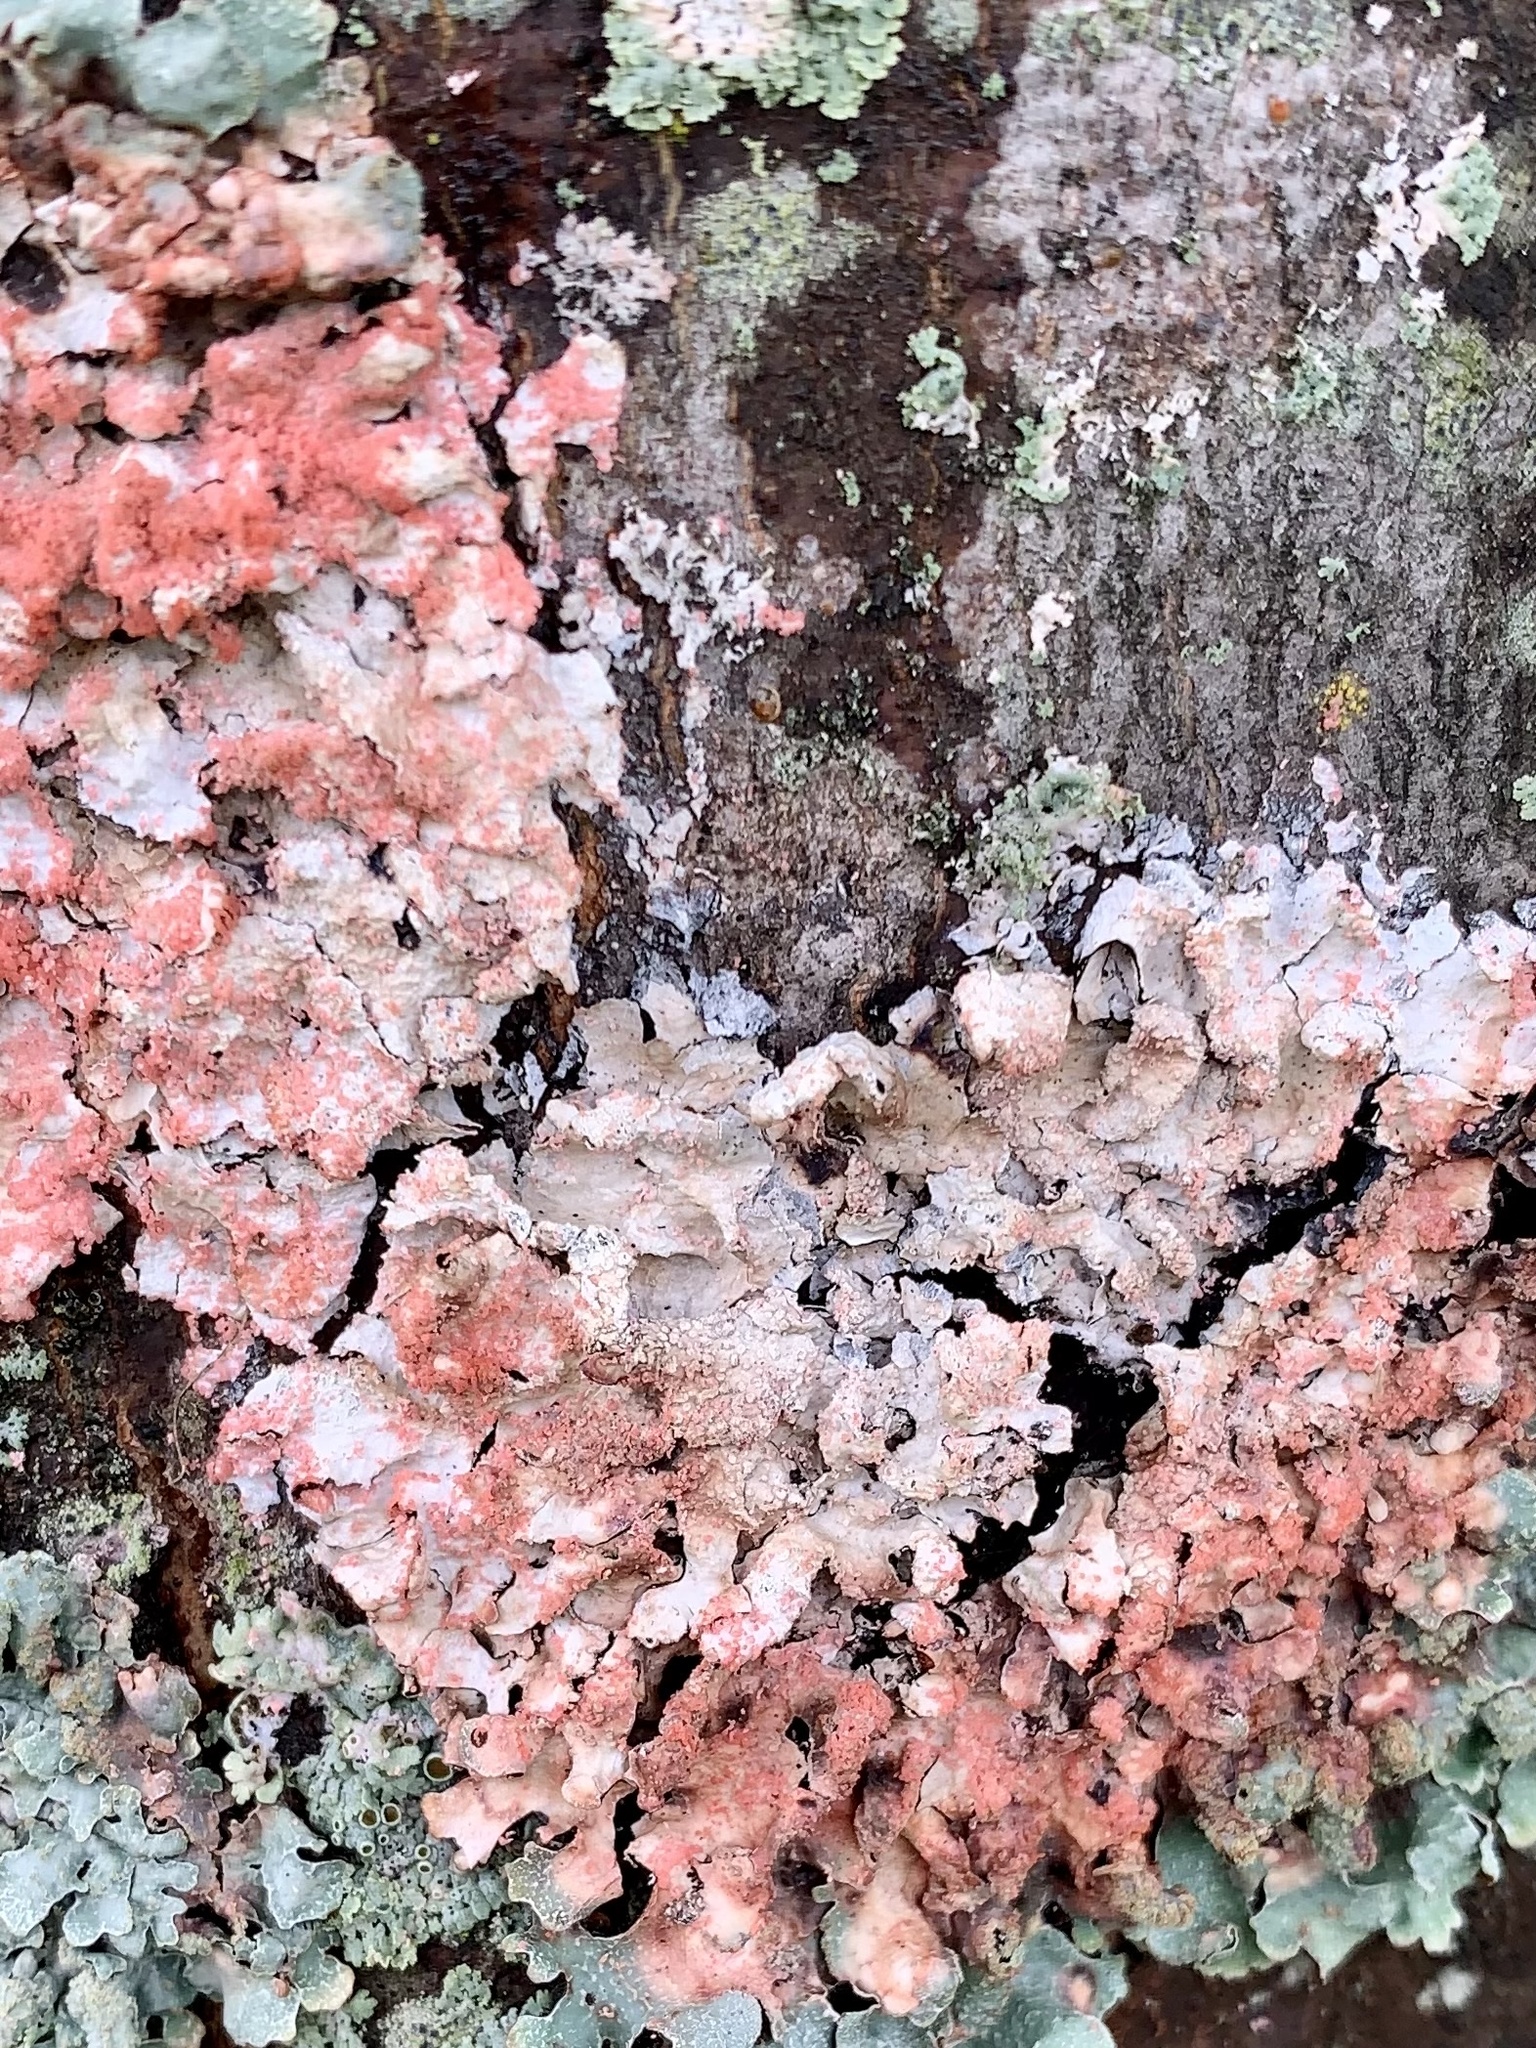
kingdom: Fungi
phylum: Basidiomycota
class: Agaricomycetes
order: Corticiales
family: Corticiaceae
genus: Marchandiomyces
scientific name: Marchandiomyces corallinus
